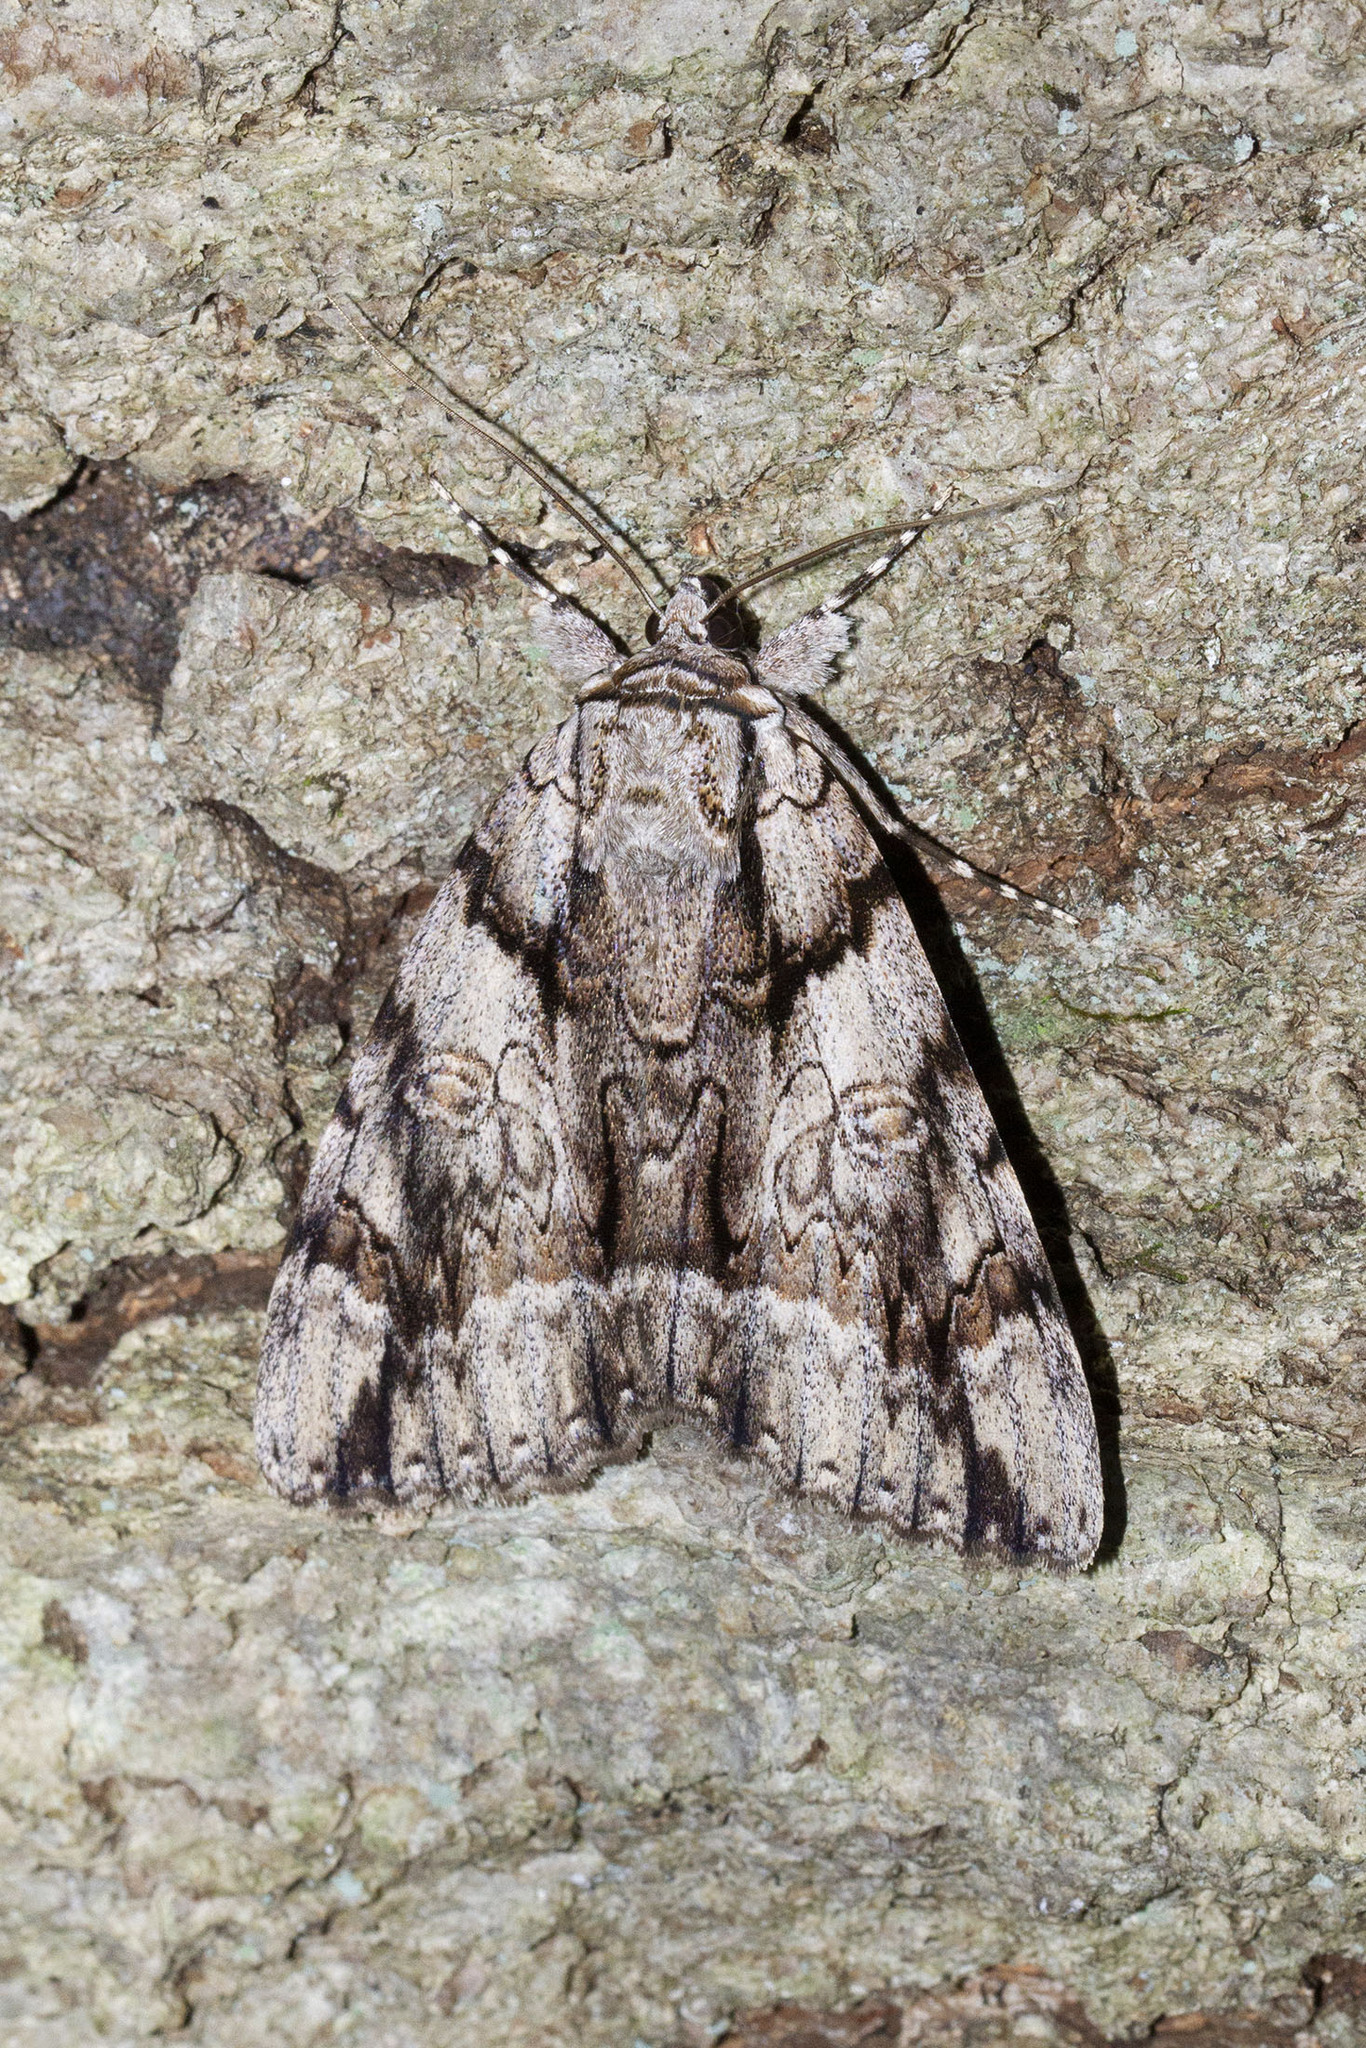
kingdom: Animalia
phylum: Arthropoda
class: Insecta
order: Lepidoptera
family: Erebidae
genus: Catocala
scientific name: Catocala vidua
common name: The widow
